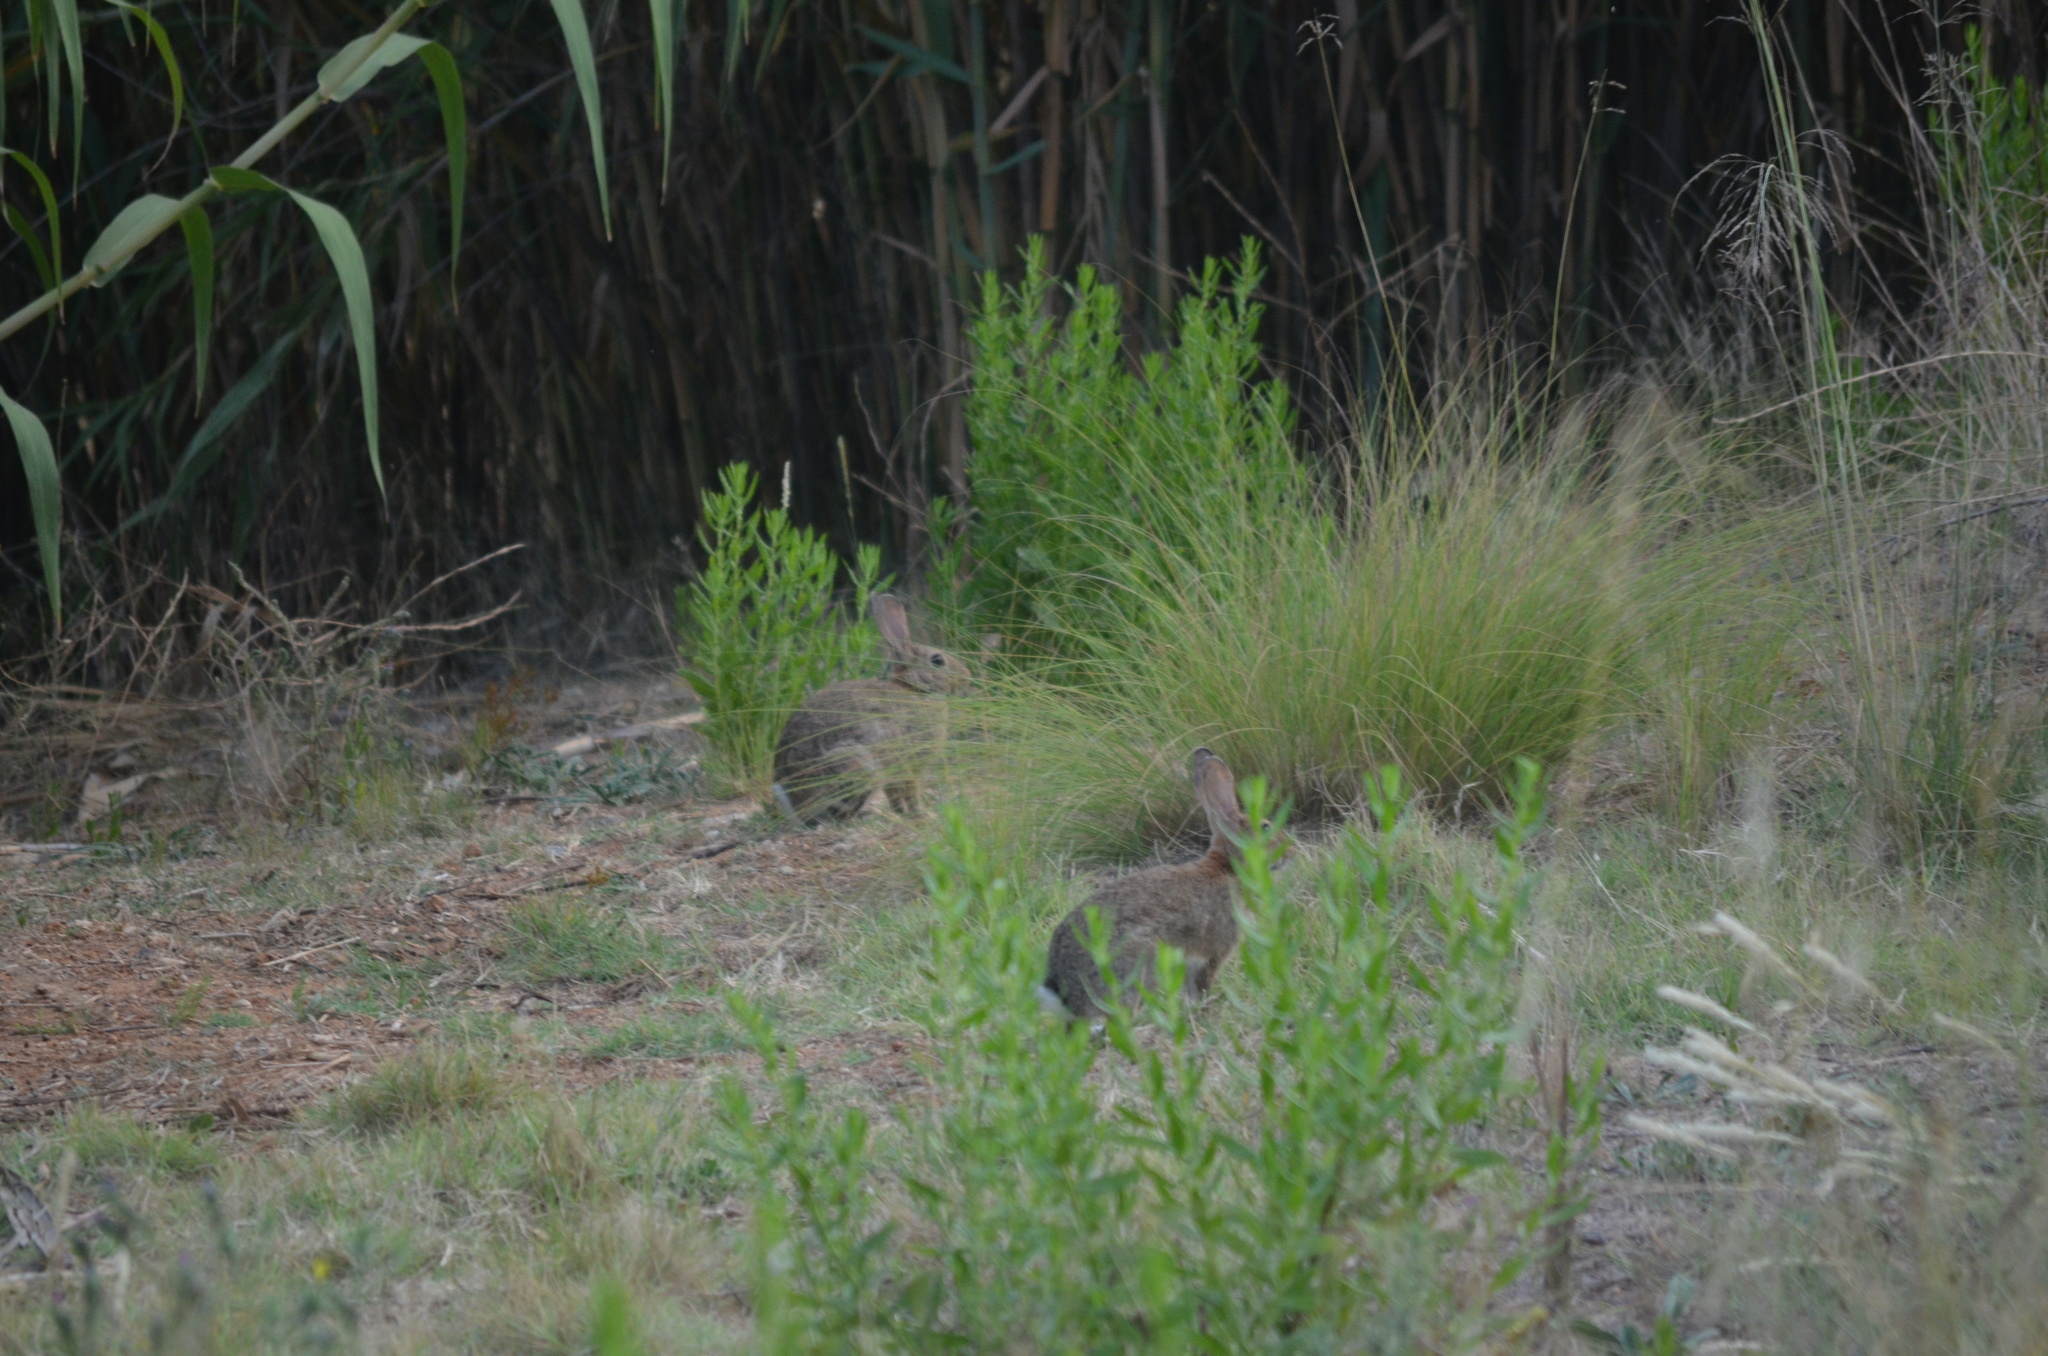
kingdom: Animalia
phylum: Chordata
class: Mammalia
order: Lagomorpha
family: Leporidae
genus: Oryctolagus
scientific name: Oryctolagus cuniculus
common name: European rabbit
